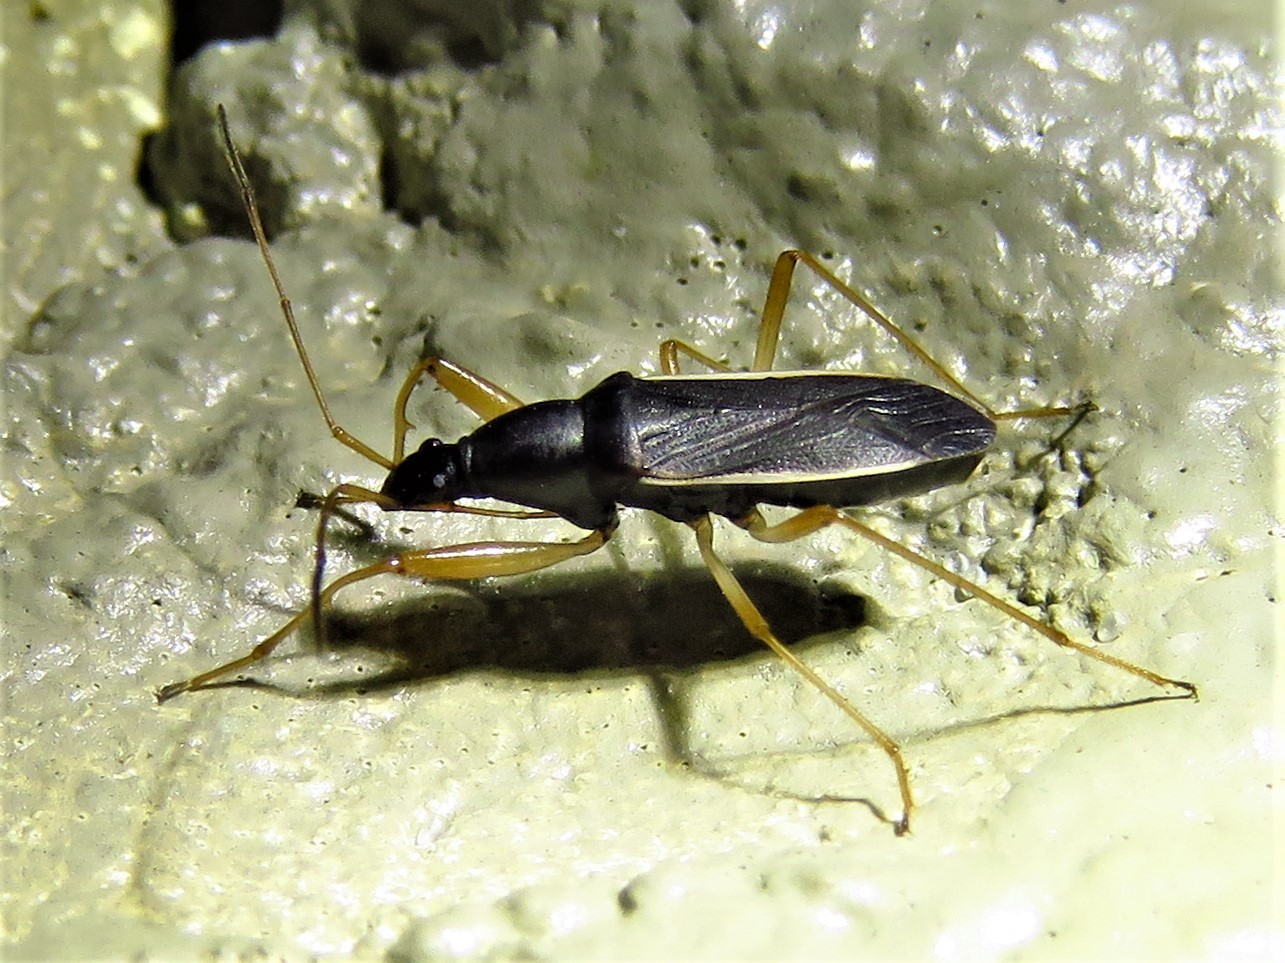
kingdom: Animalia
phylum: Arthropoda
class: Insecta
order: Hemiptera
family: Rhyparochromidae
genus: Cnemodus
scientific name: Cnemodus mavortius
